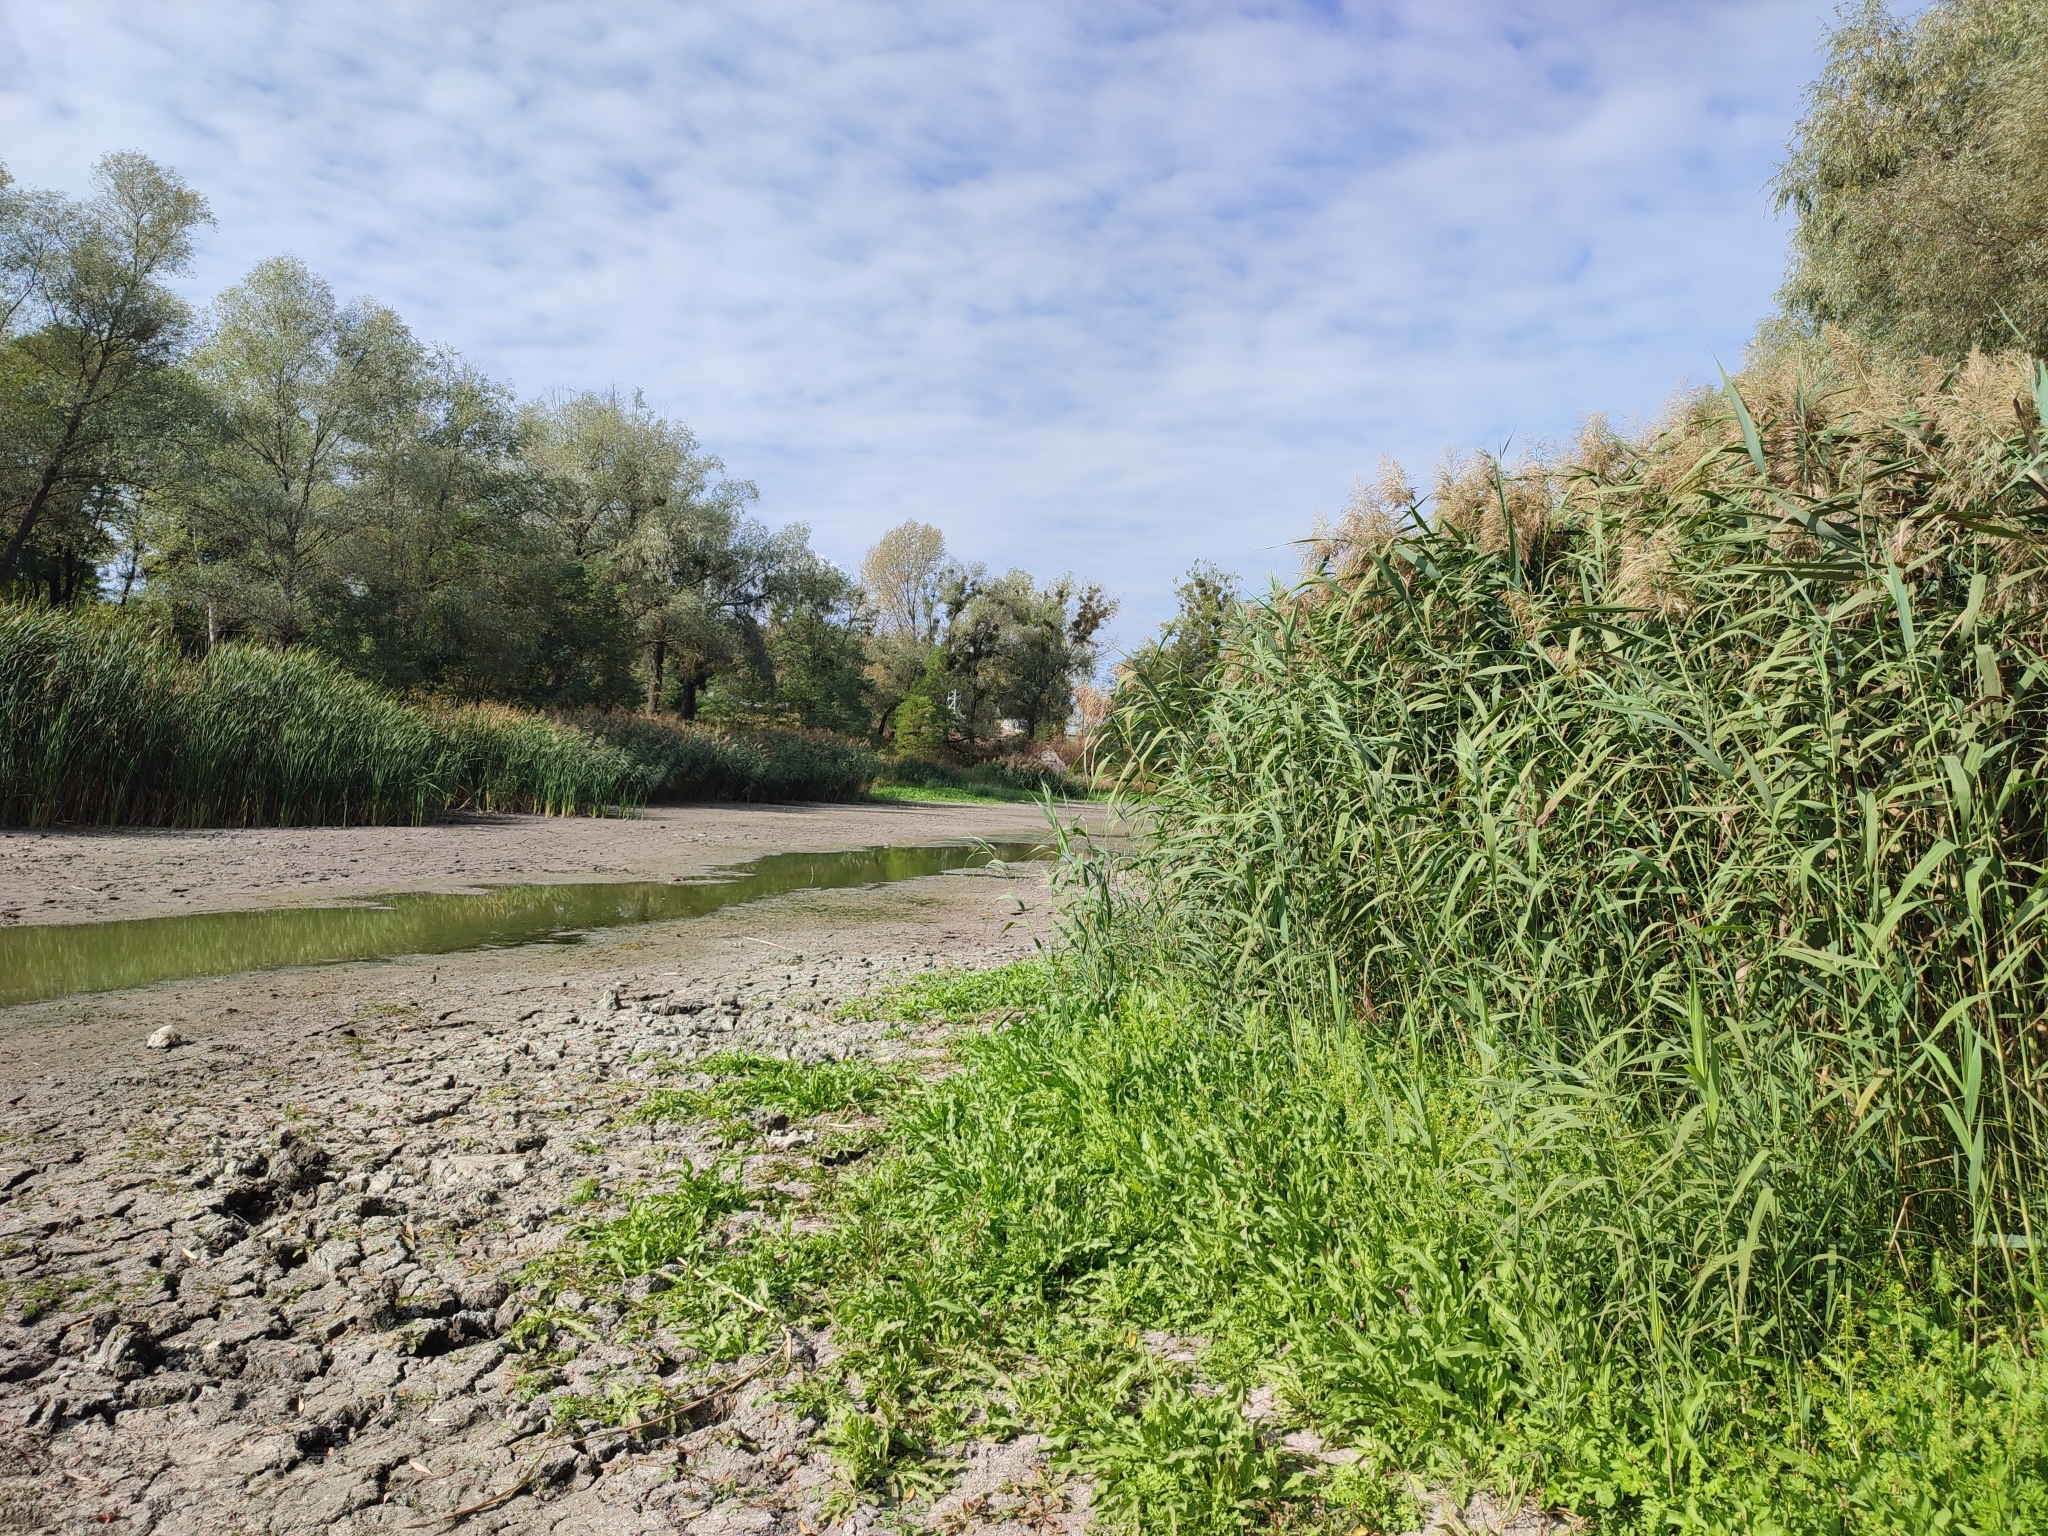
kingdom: Plantae
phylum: Tracheophyta
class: Liliopsida
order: Poales
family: Poaceae
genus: Phragmites
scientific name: Phragmites australis
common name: Common reed
